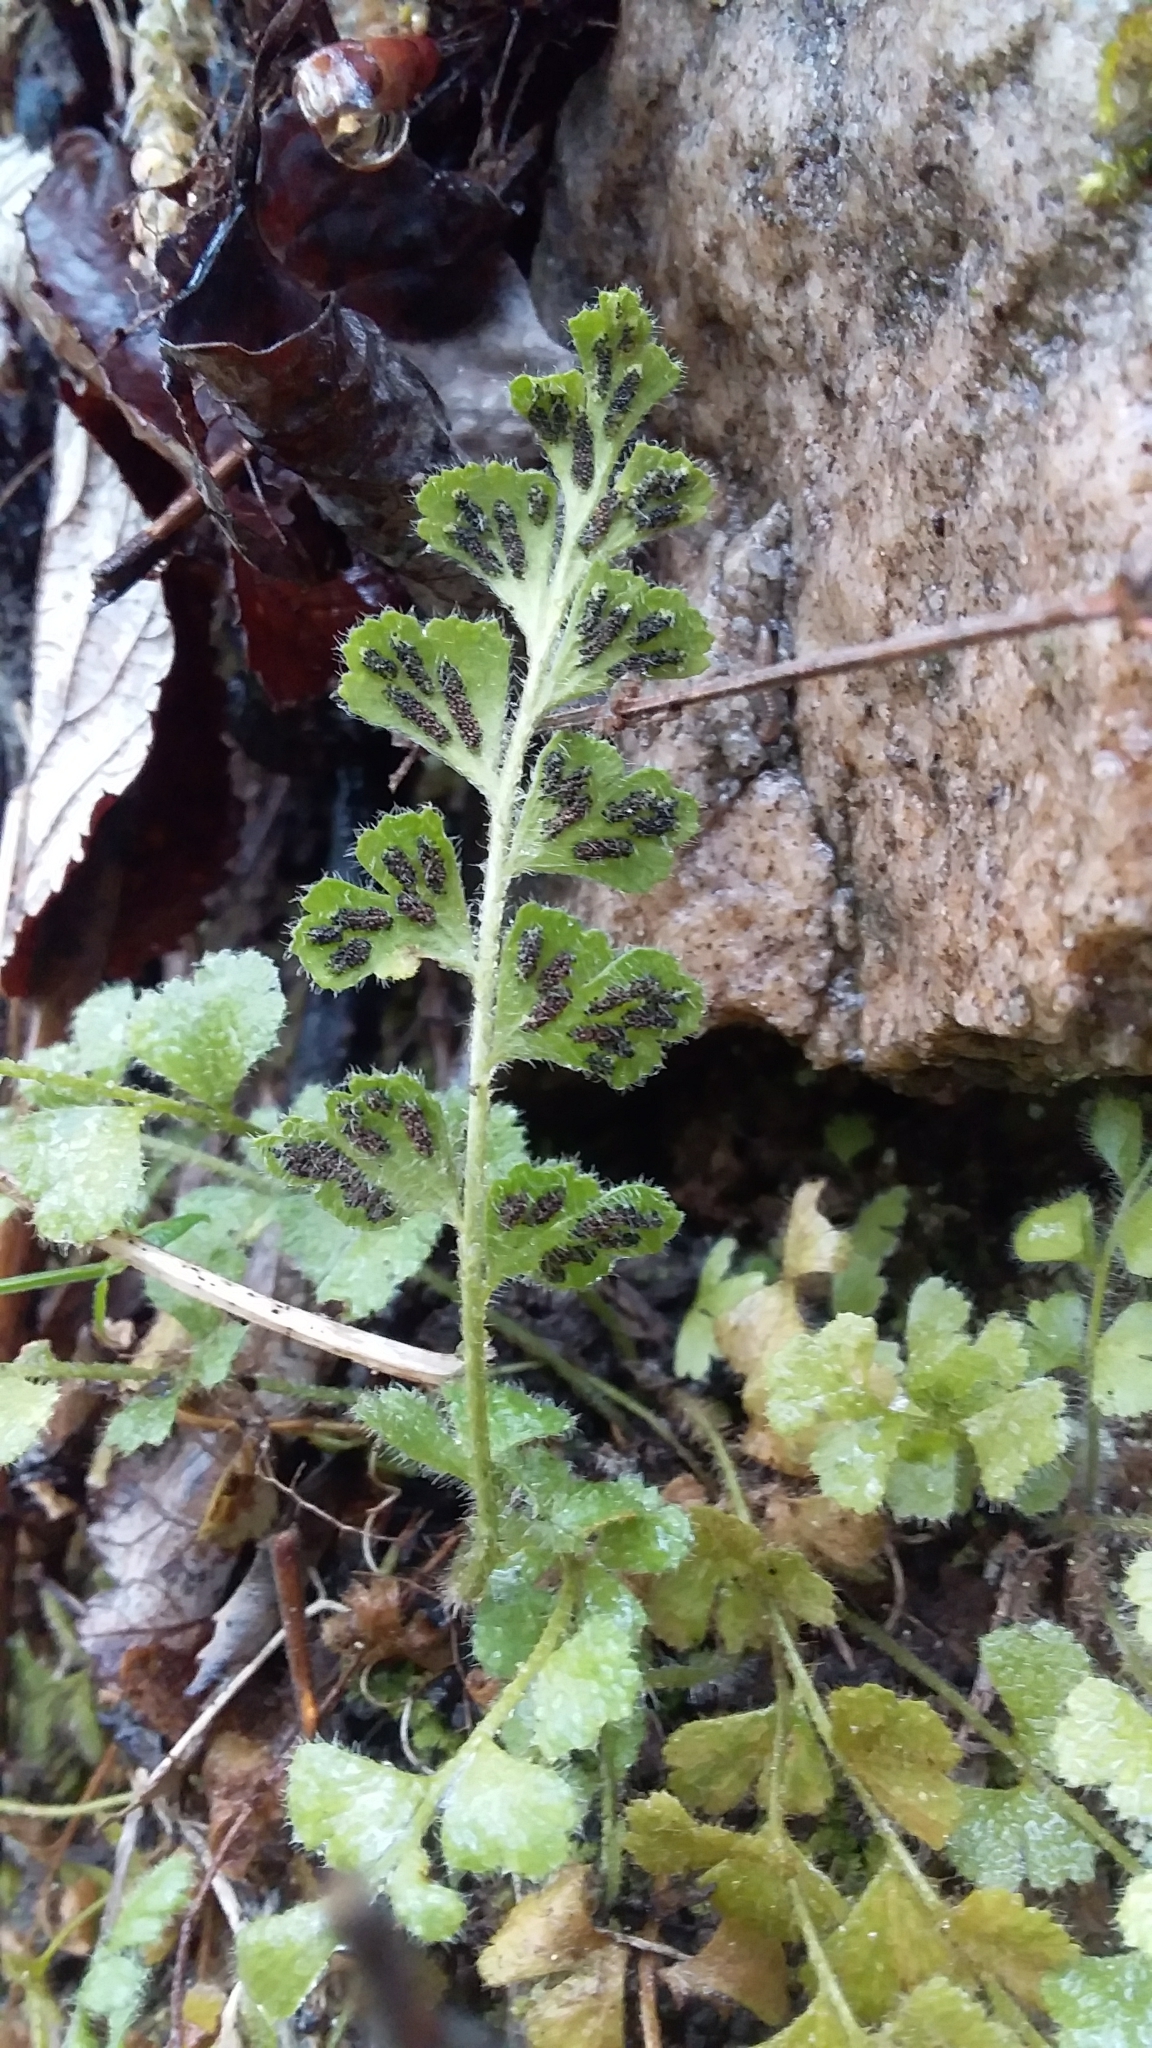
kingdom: Plantae
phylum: Tracheophyta
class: Polypodiopsida
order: Polypodiales
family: Aspleniaceae
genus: Asplenium
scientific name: Asplenium subglandulosum
